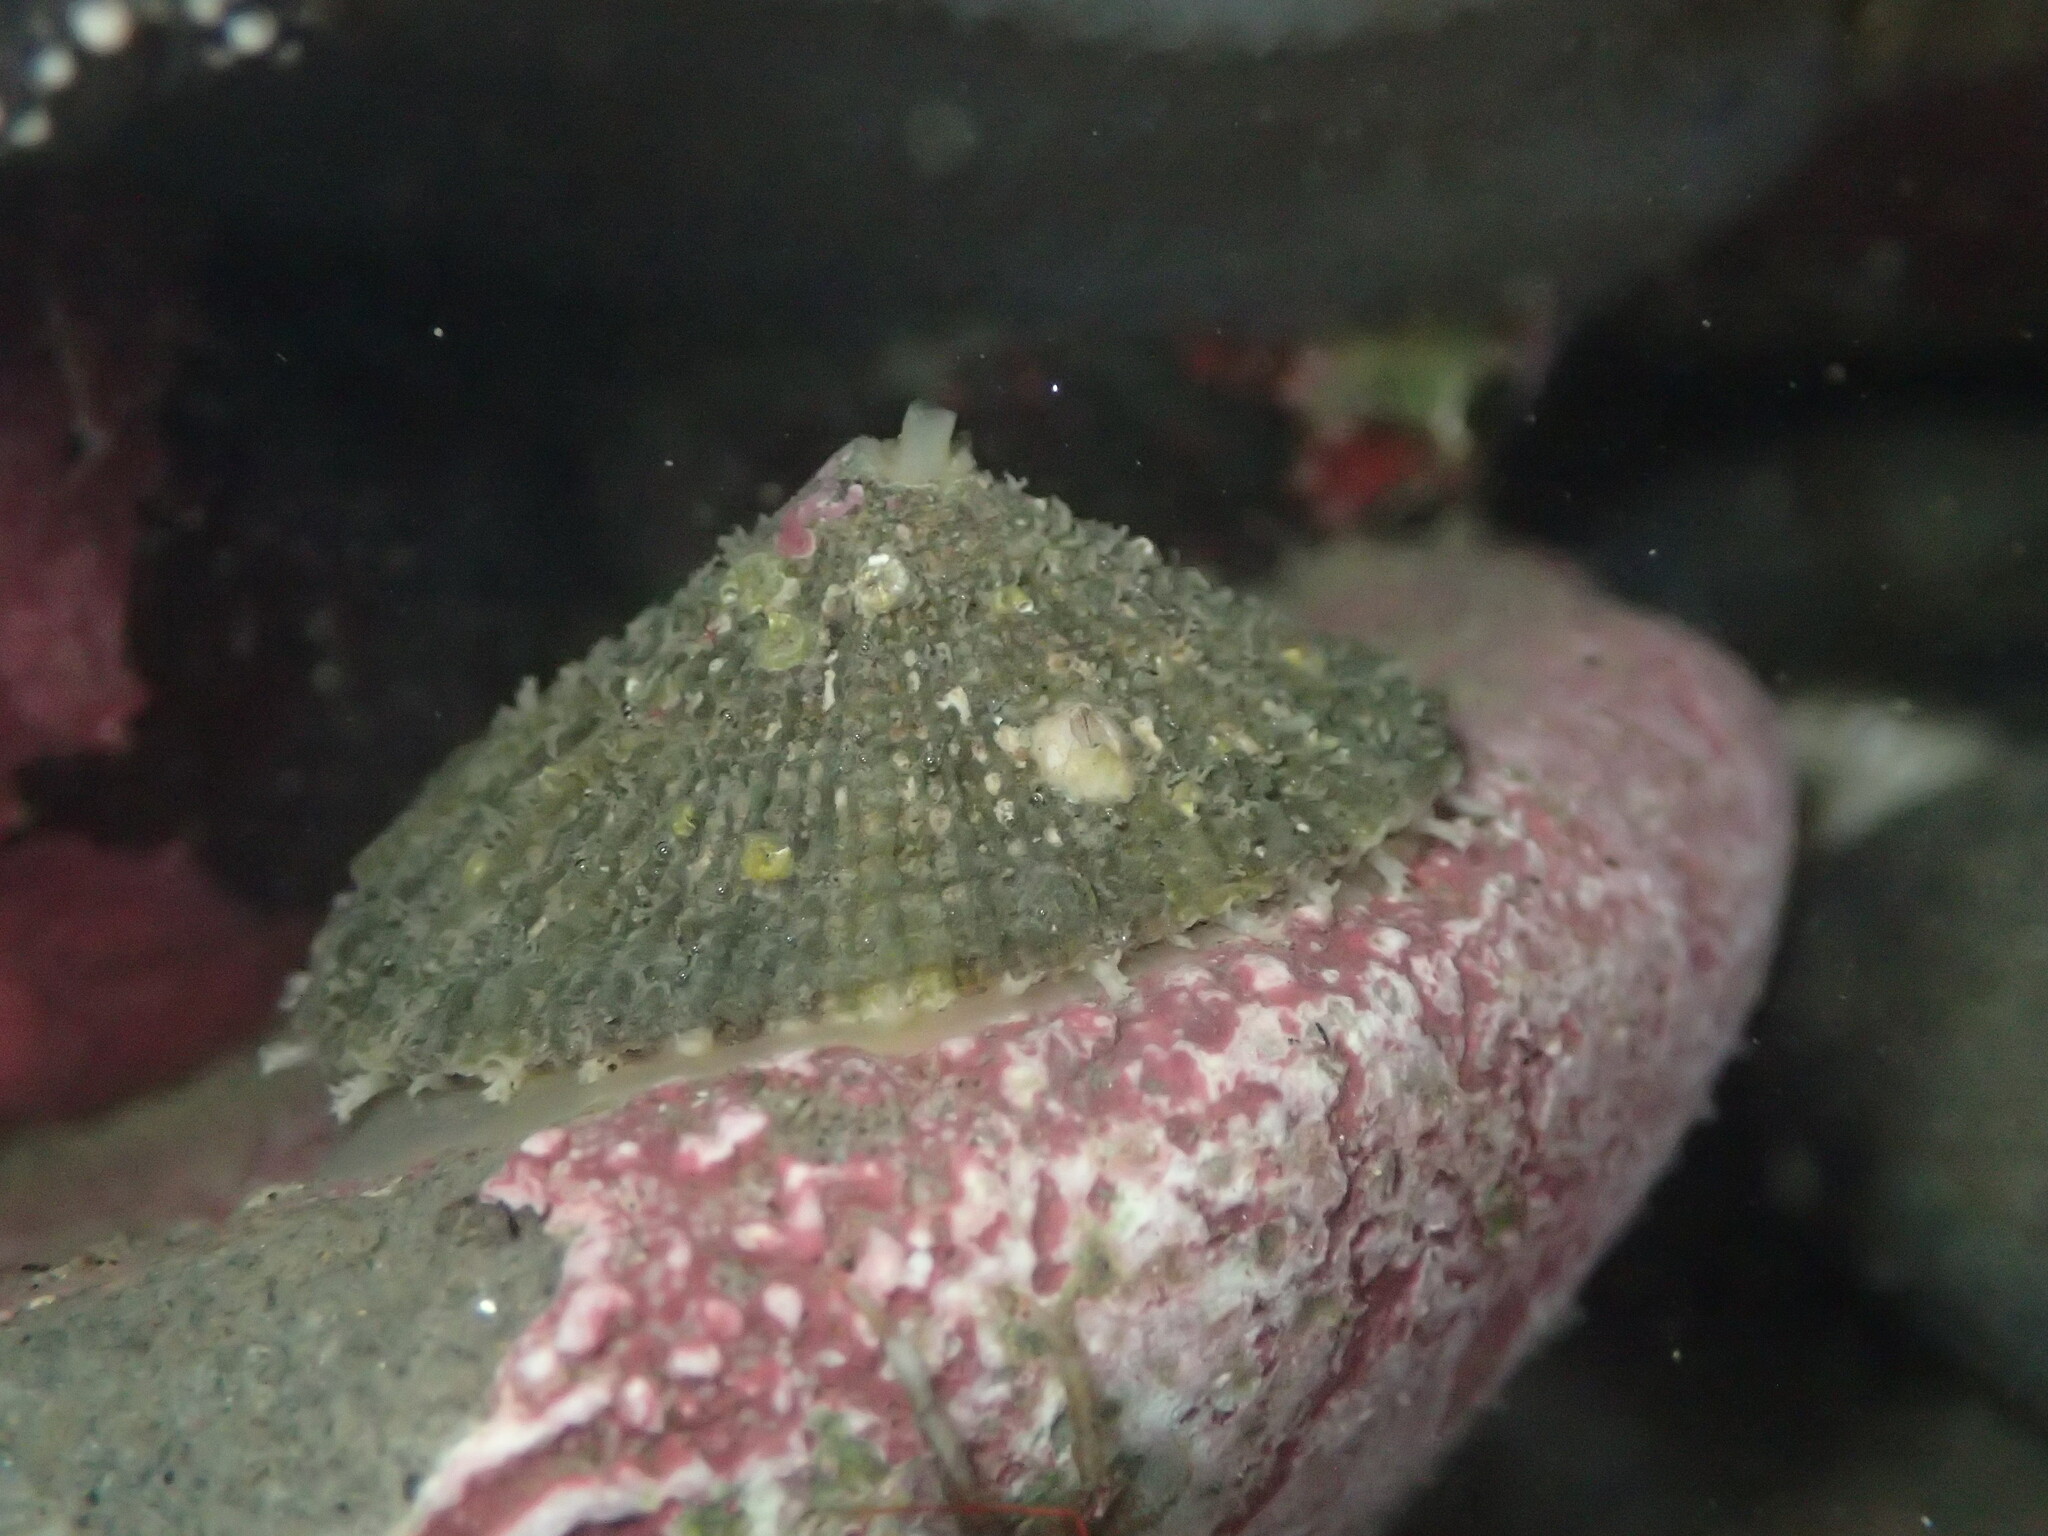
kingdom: Animalia
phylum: Mollusca
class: Gastropoda
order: Lepetellida
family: Fissurellidae
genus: Diodora
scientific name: Diodora aspera
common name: Rough keyhole limpet
